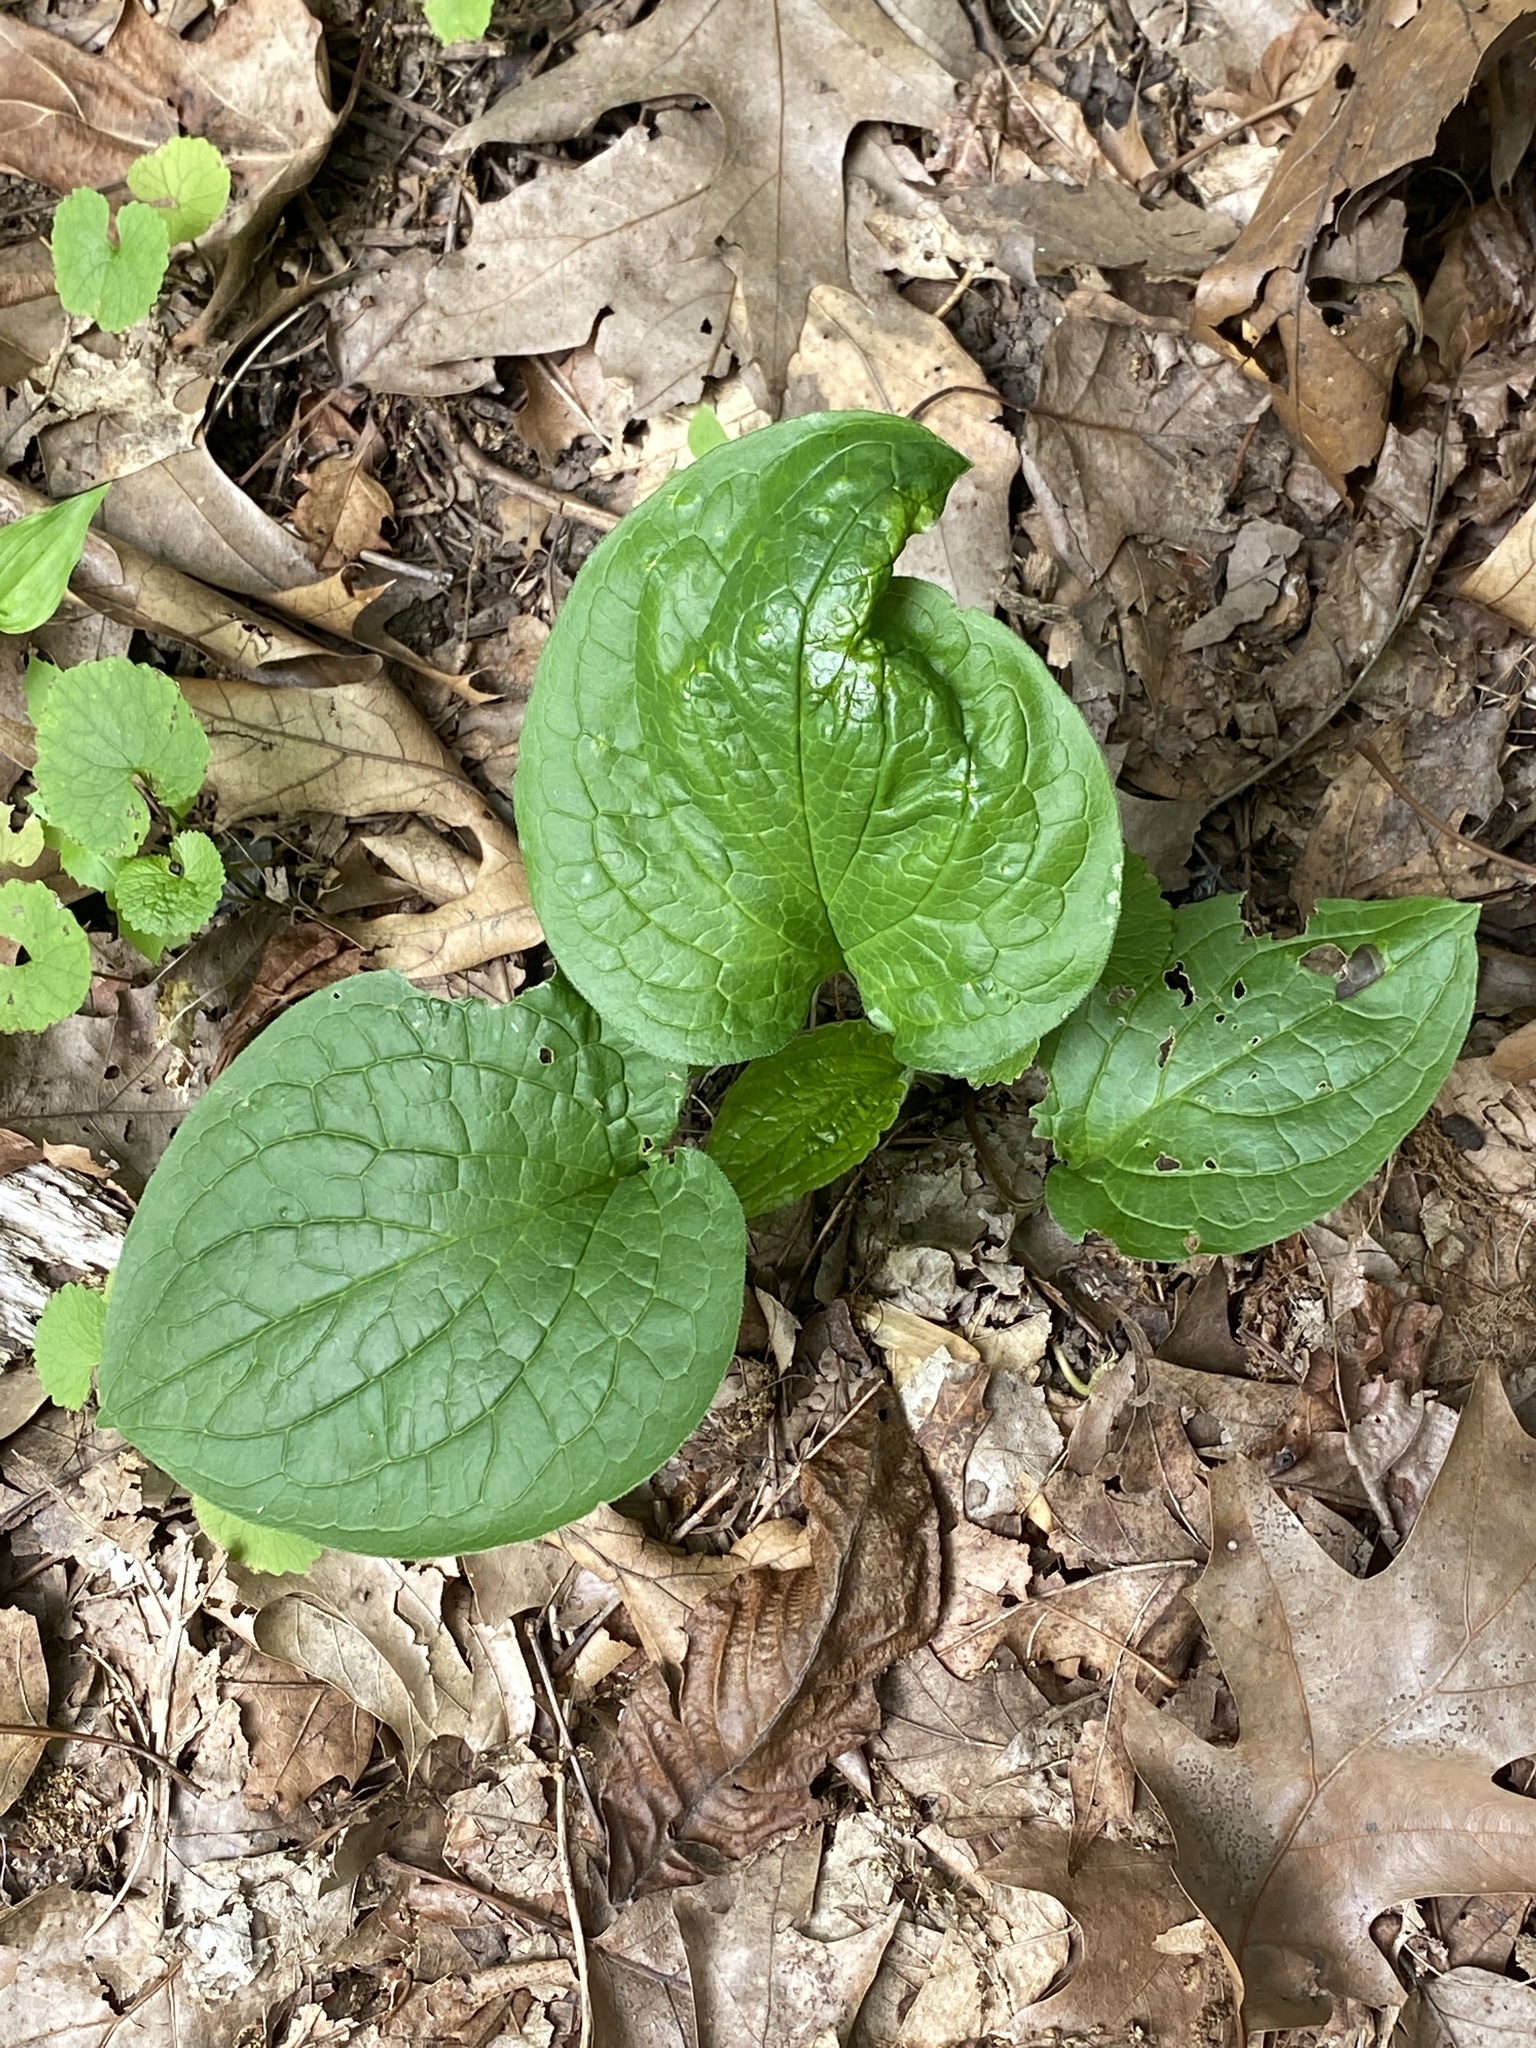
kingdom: Plantae
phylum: Tracheophyta
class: Magnoliopsida
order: Boraginales
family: Boraginaceae
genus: Hackelia
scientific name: Hackelia virginiana
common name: Beggar's-lice
